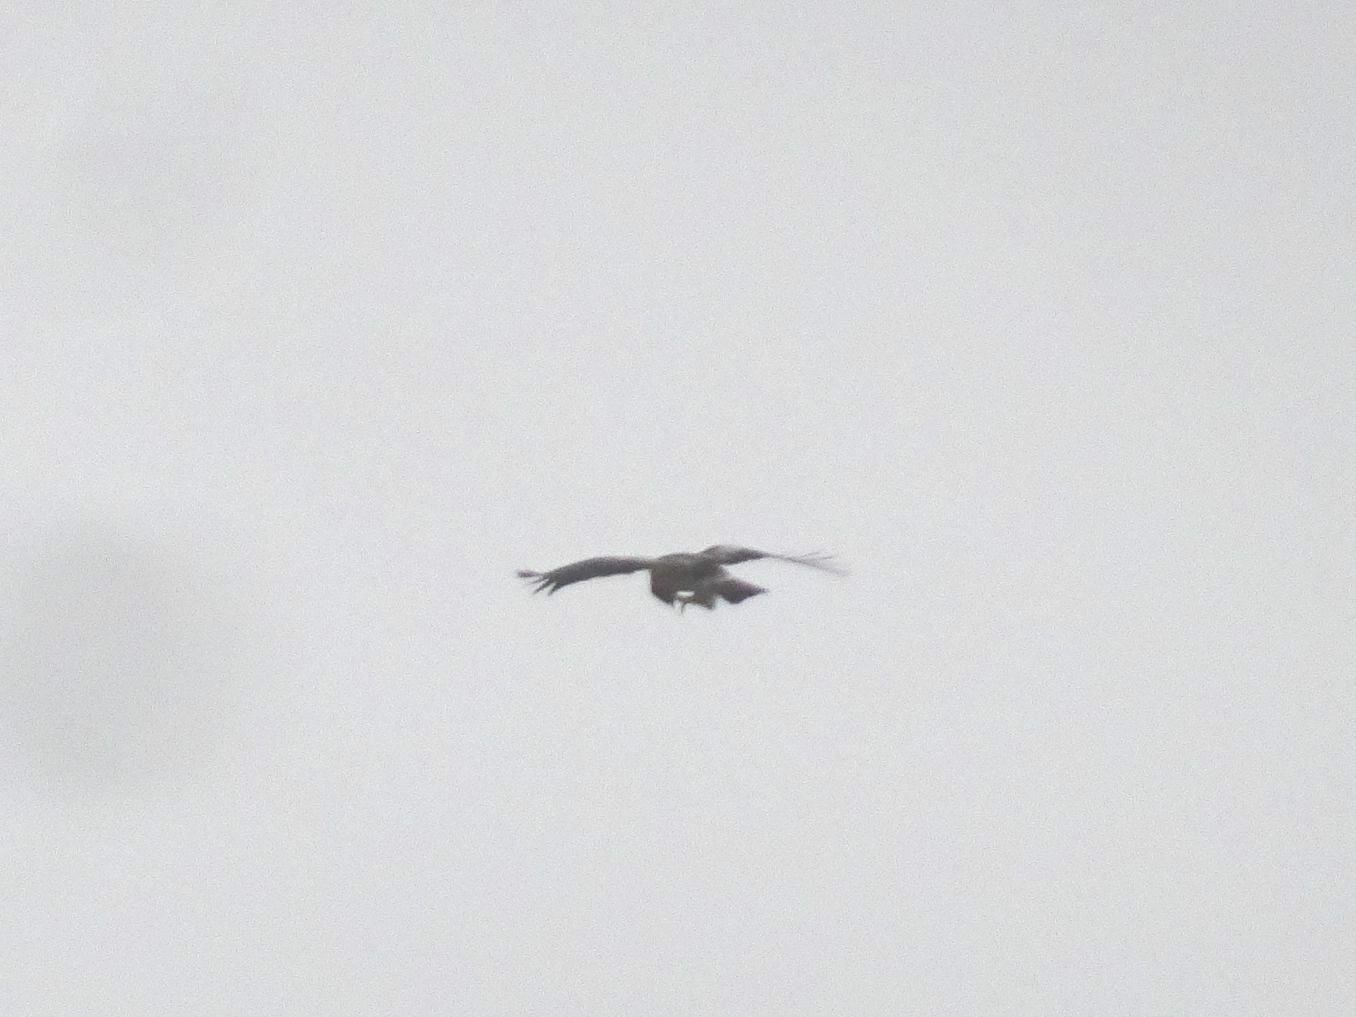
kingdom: Animalia
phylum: Chordata
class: Aves
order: Accipitriformes
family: Accipitridae
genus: Hieraaetus
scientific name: Hieraaetus pennatus
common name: Booted eagle
